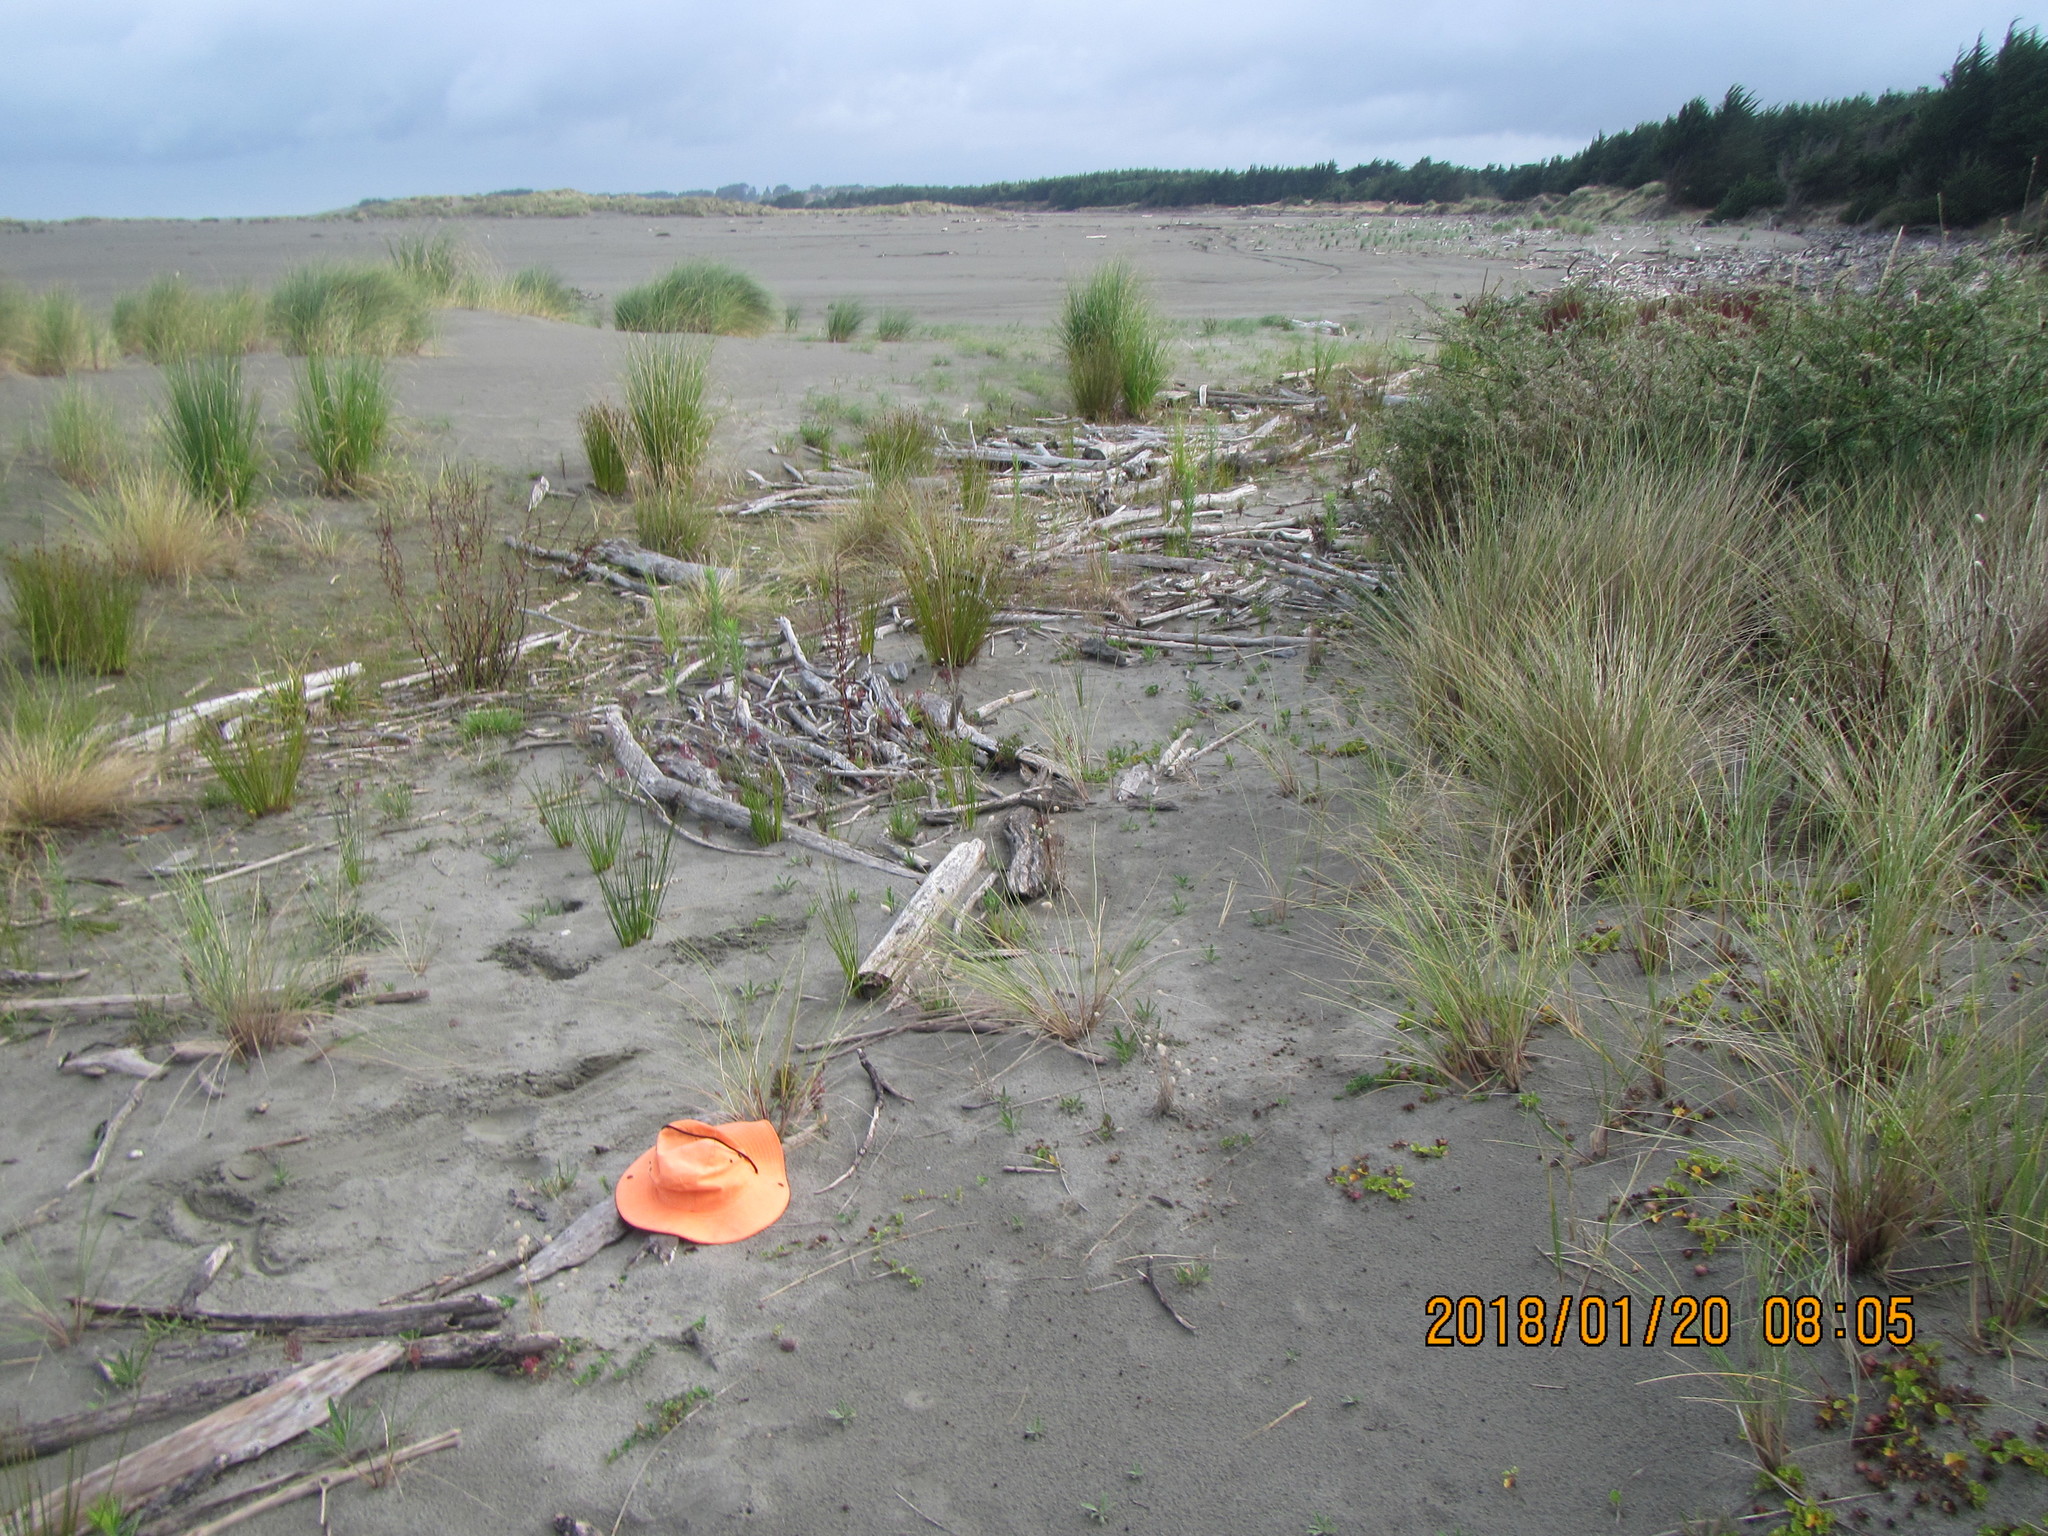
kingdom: Animalia
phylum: Arthropoda
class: Arachnida
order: Araneae
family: Theridiidae
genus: Latrodectus
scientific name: Latrodectus katipo
